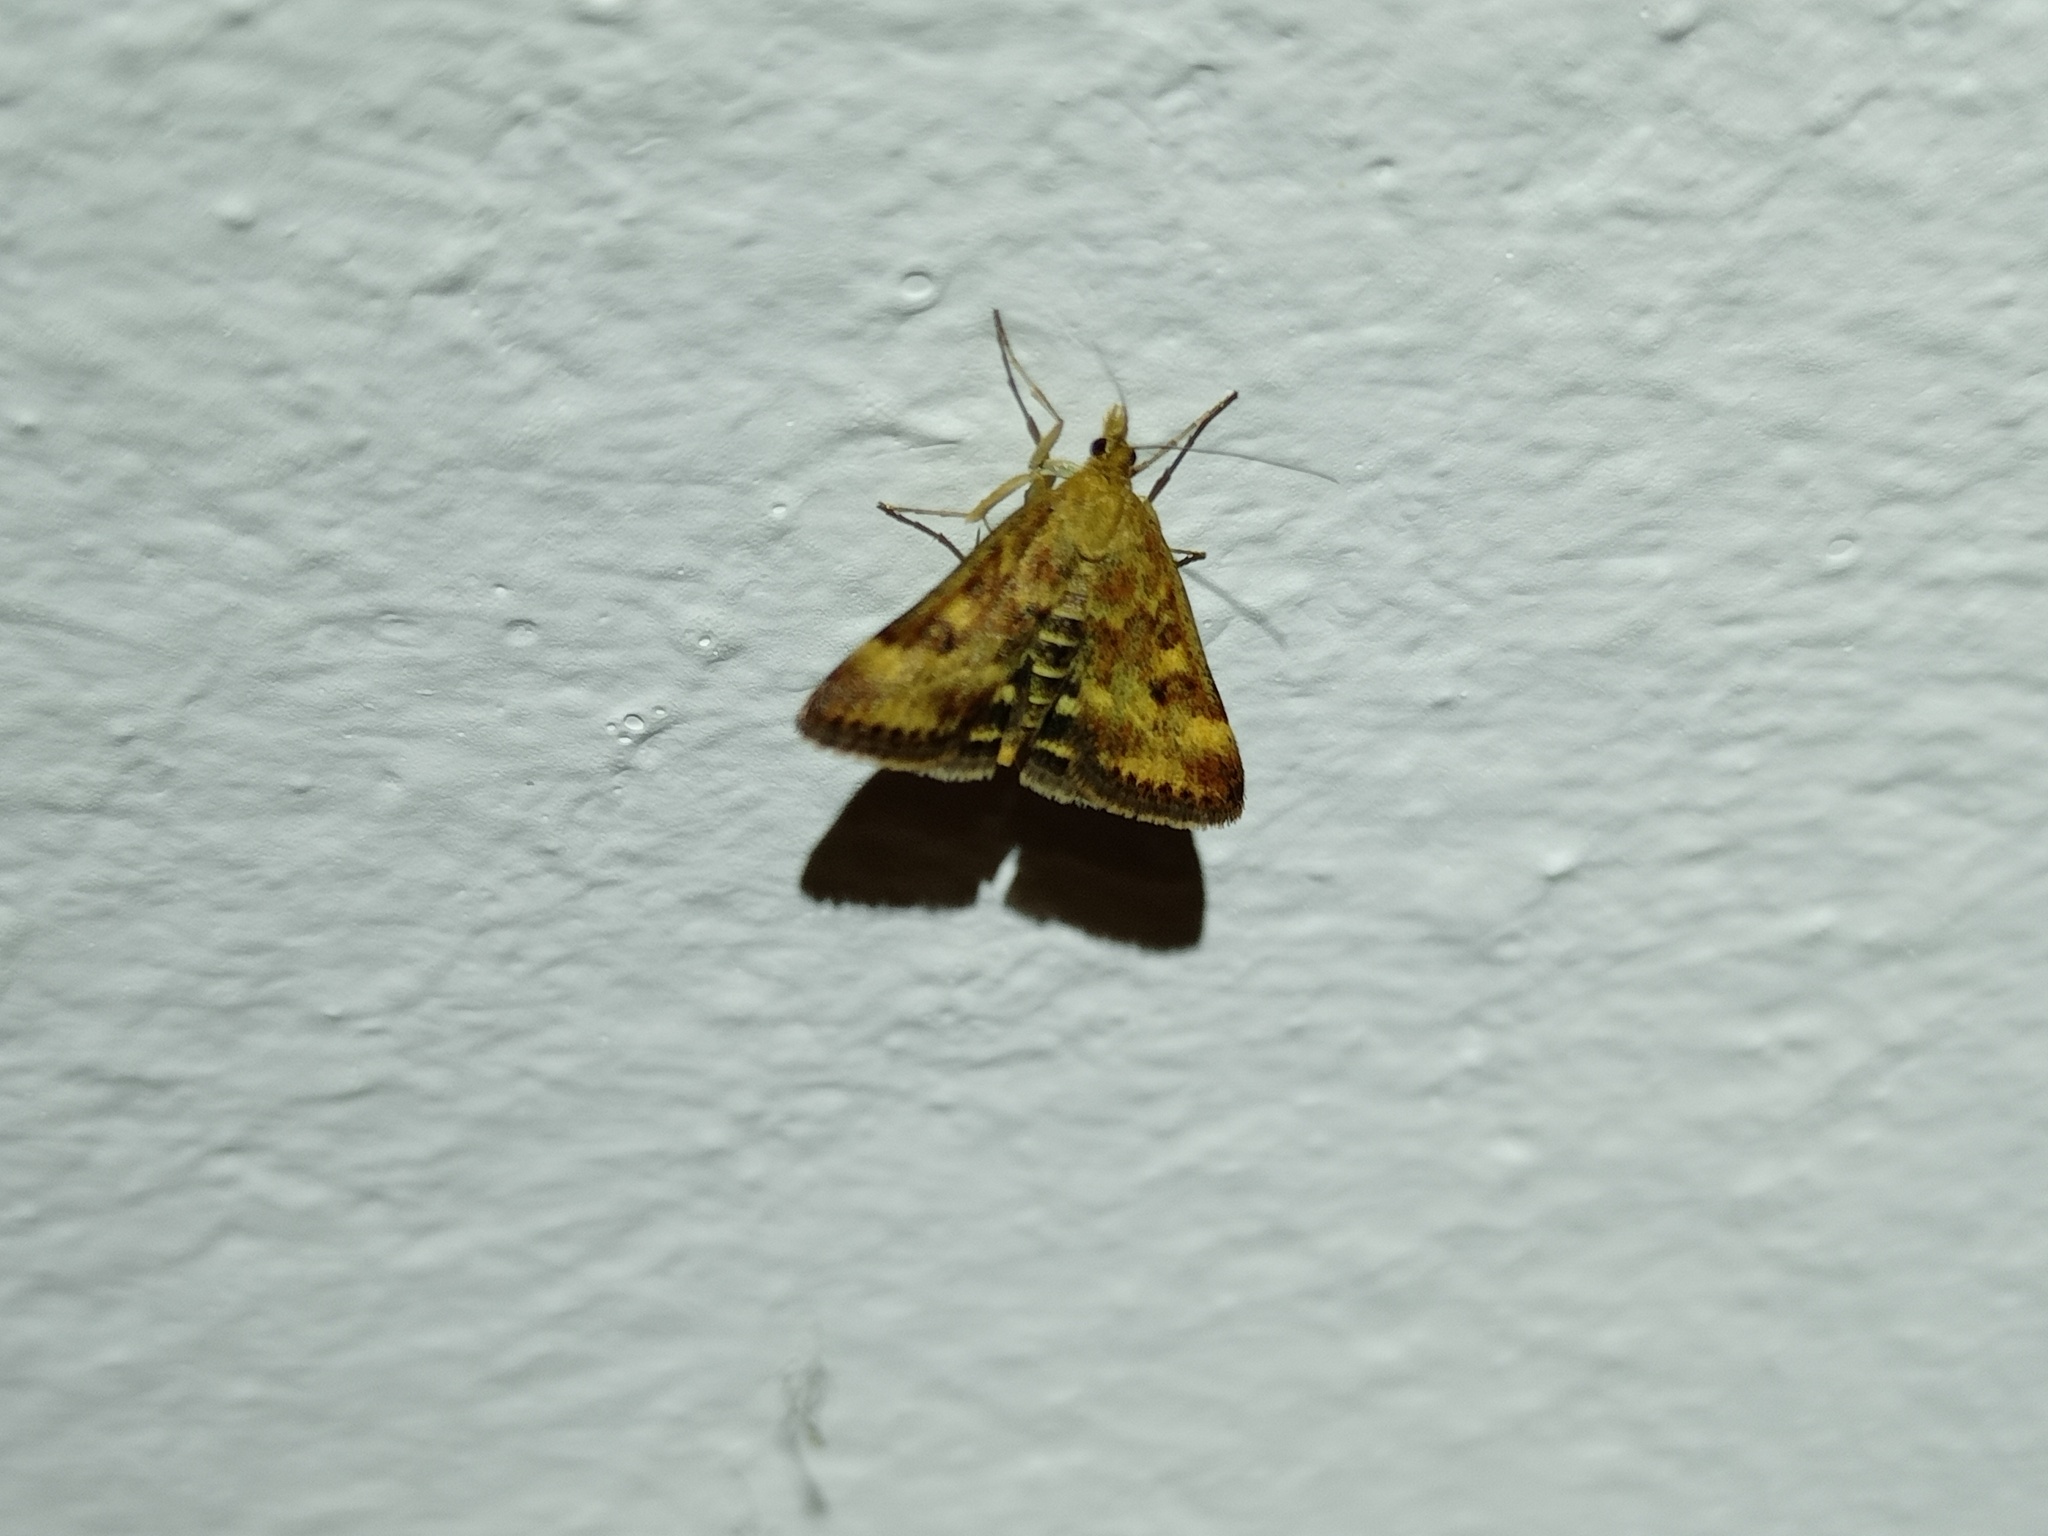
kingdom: Animalia
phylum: Arthropoda
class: Insecta
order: Lepidoptera
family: Crambidae
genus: Pyrausta
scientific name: Pyrausta despicata
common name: Straw-barred pearl
